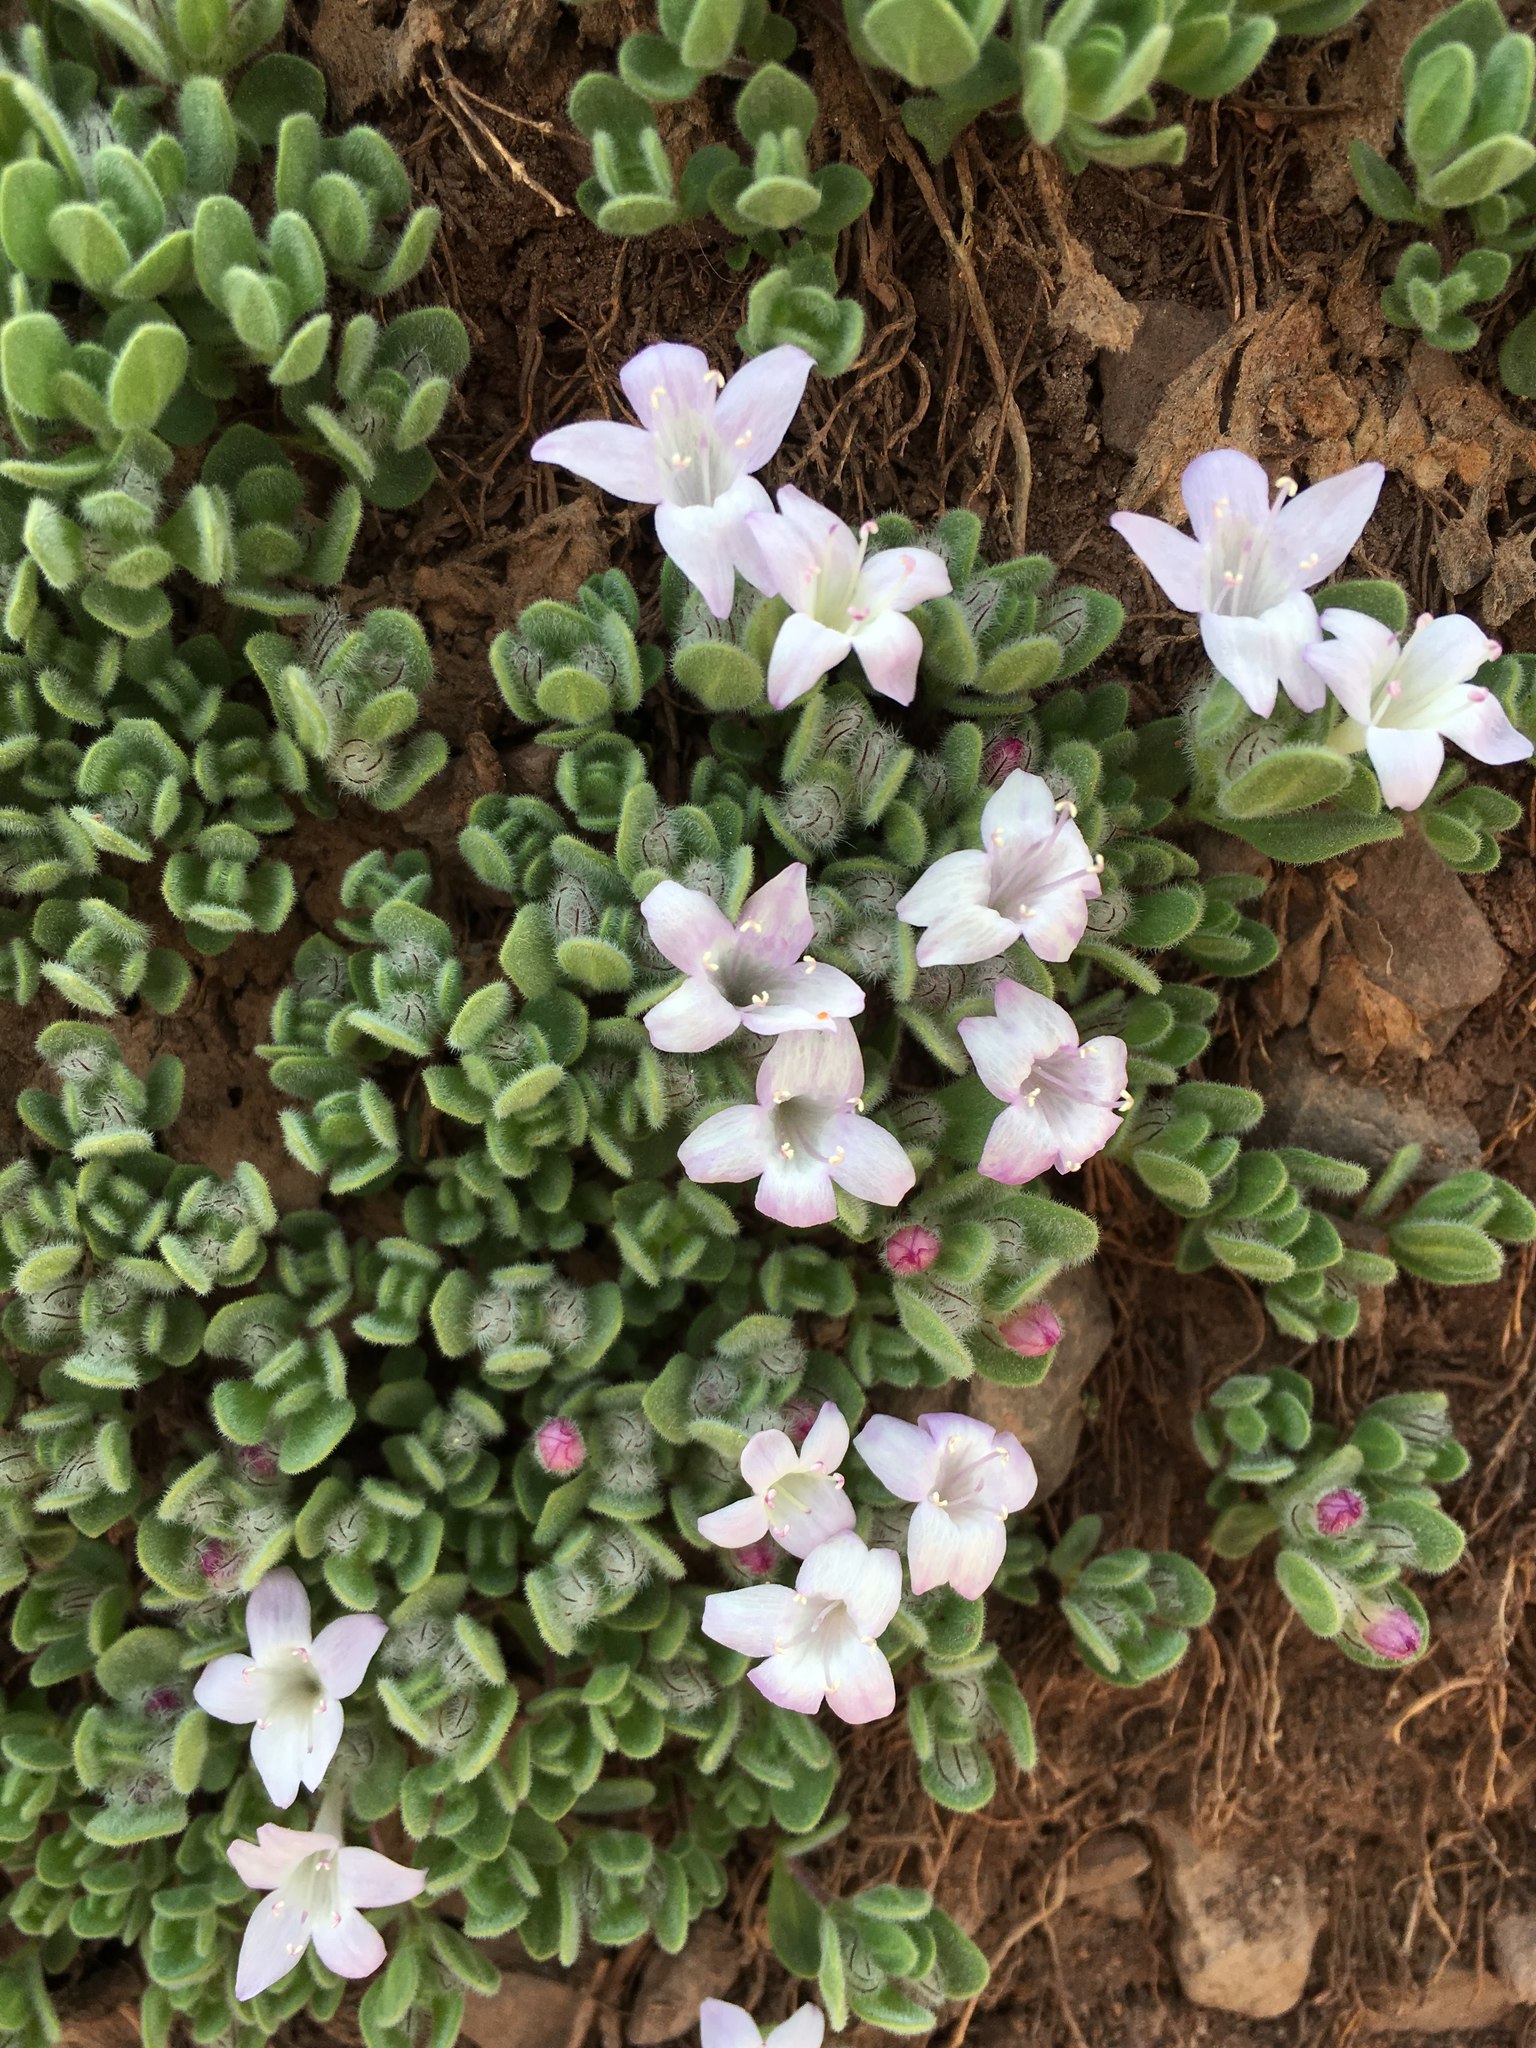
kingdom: Plantae
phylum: Tracheophyta
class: Magnoliopsida
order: Lamiales
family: Lamiaceae
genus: Kurzamra
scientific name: Kurzamra pulchella
